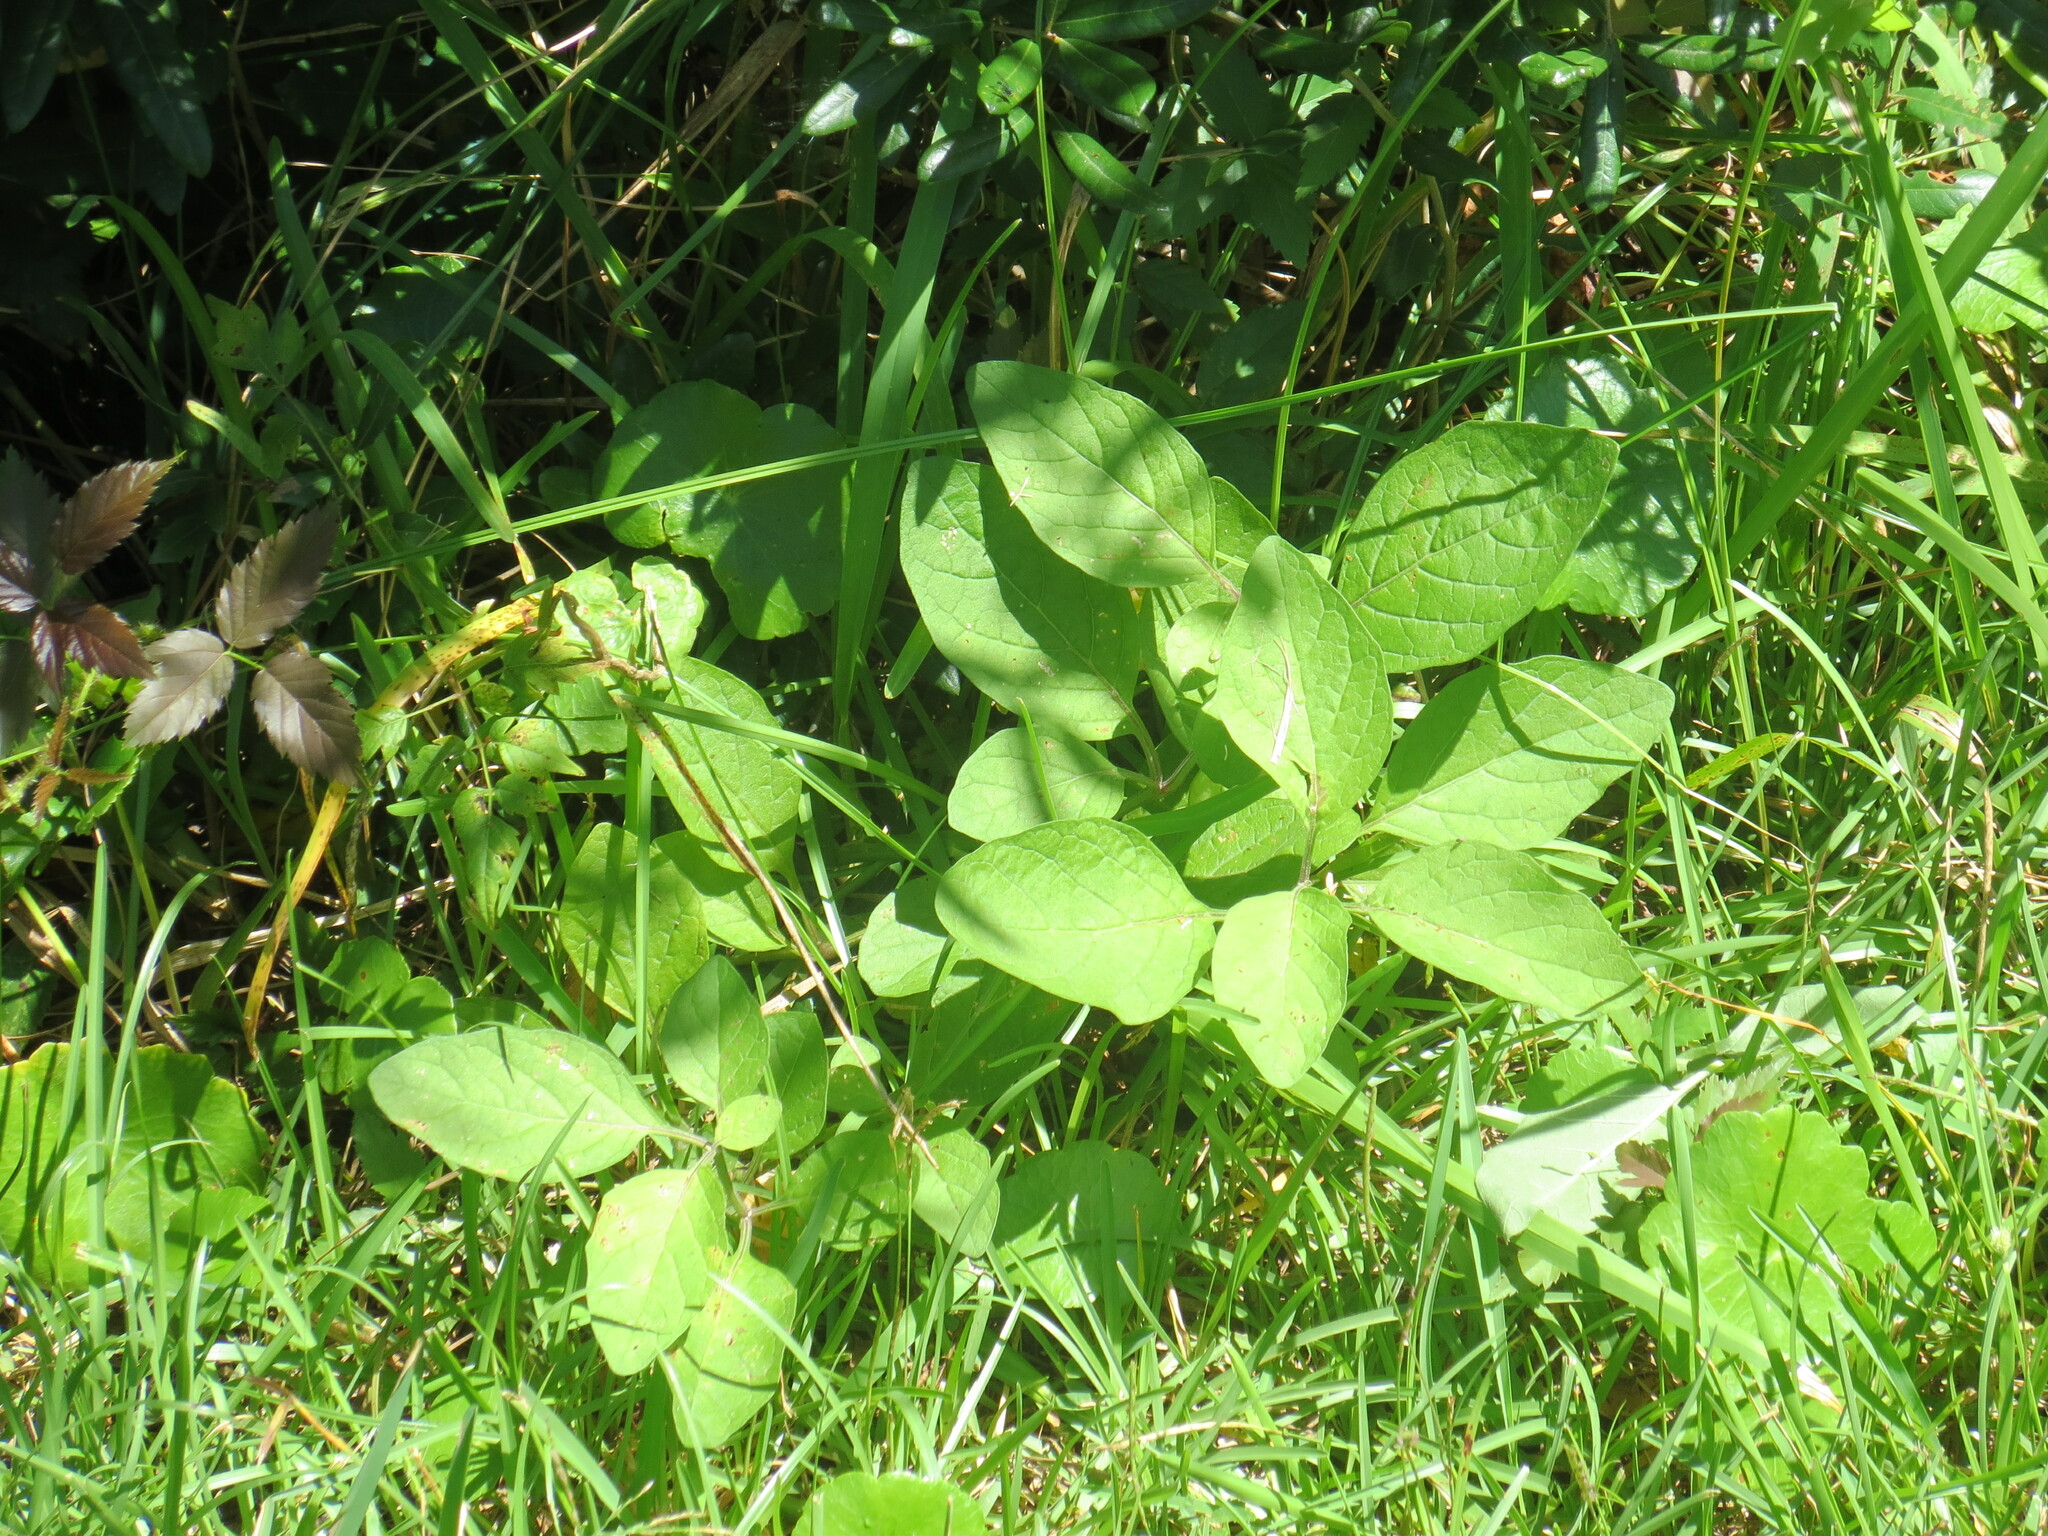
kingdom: Plantae
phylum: Tracheophyta
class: Magnoliopsida
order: Solanales
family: Solanaceae
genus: Physalis
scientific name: Physalis walteri
